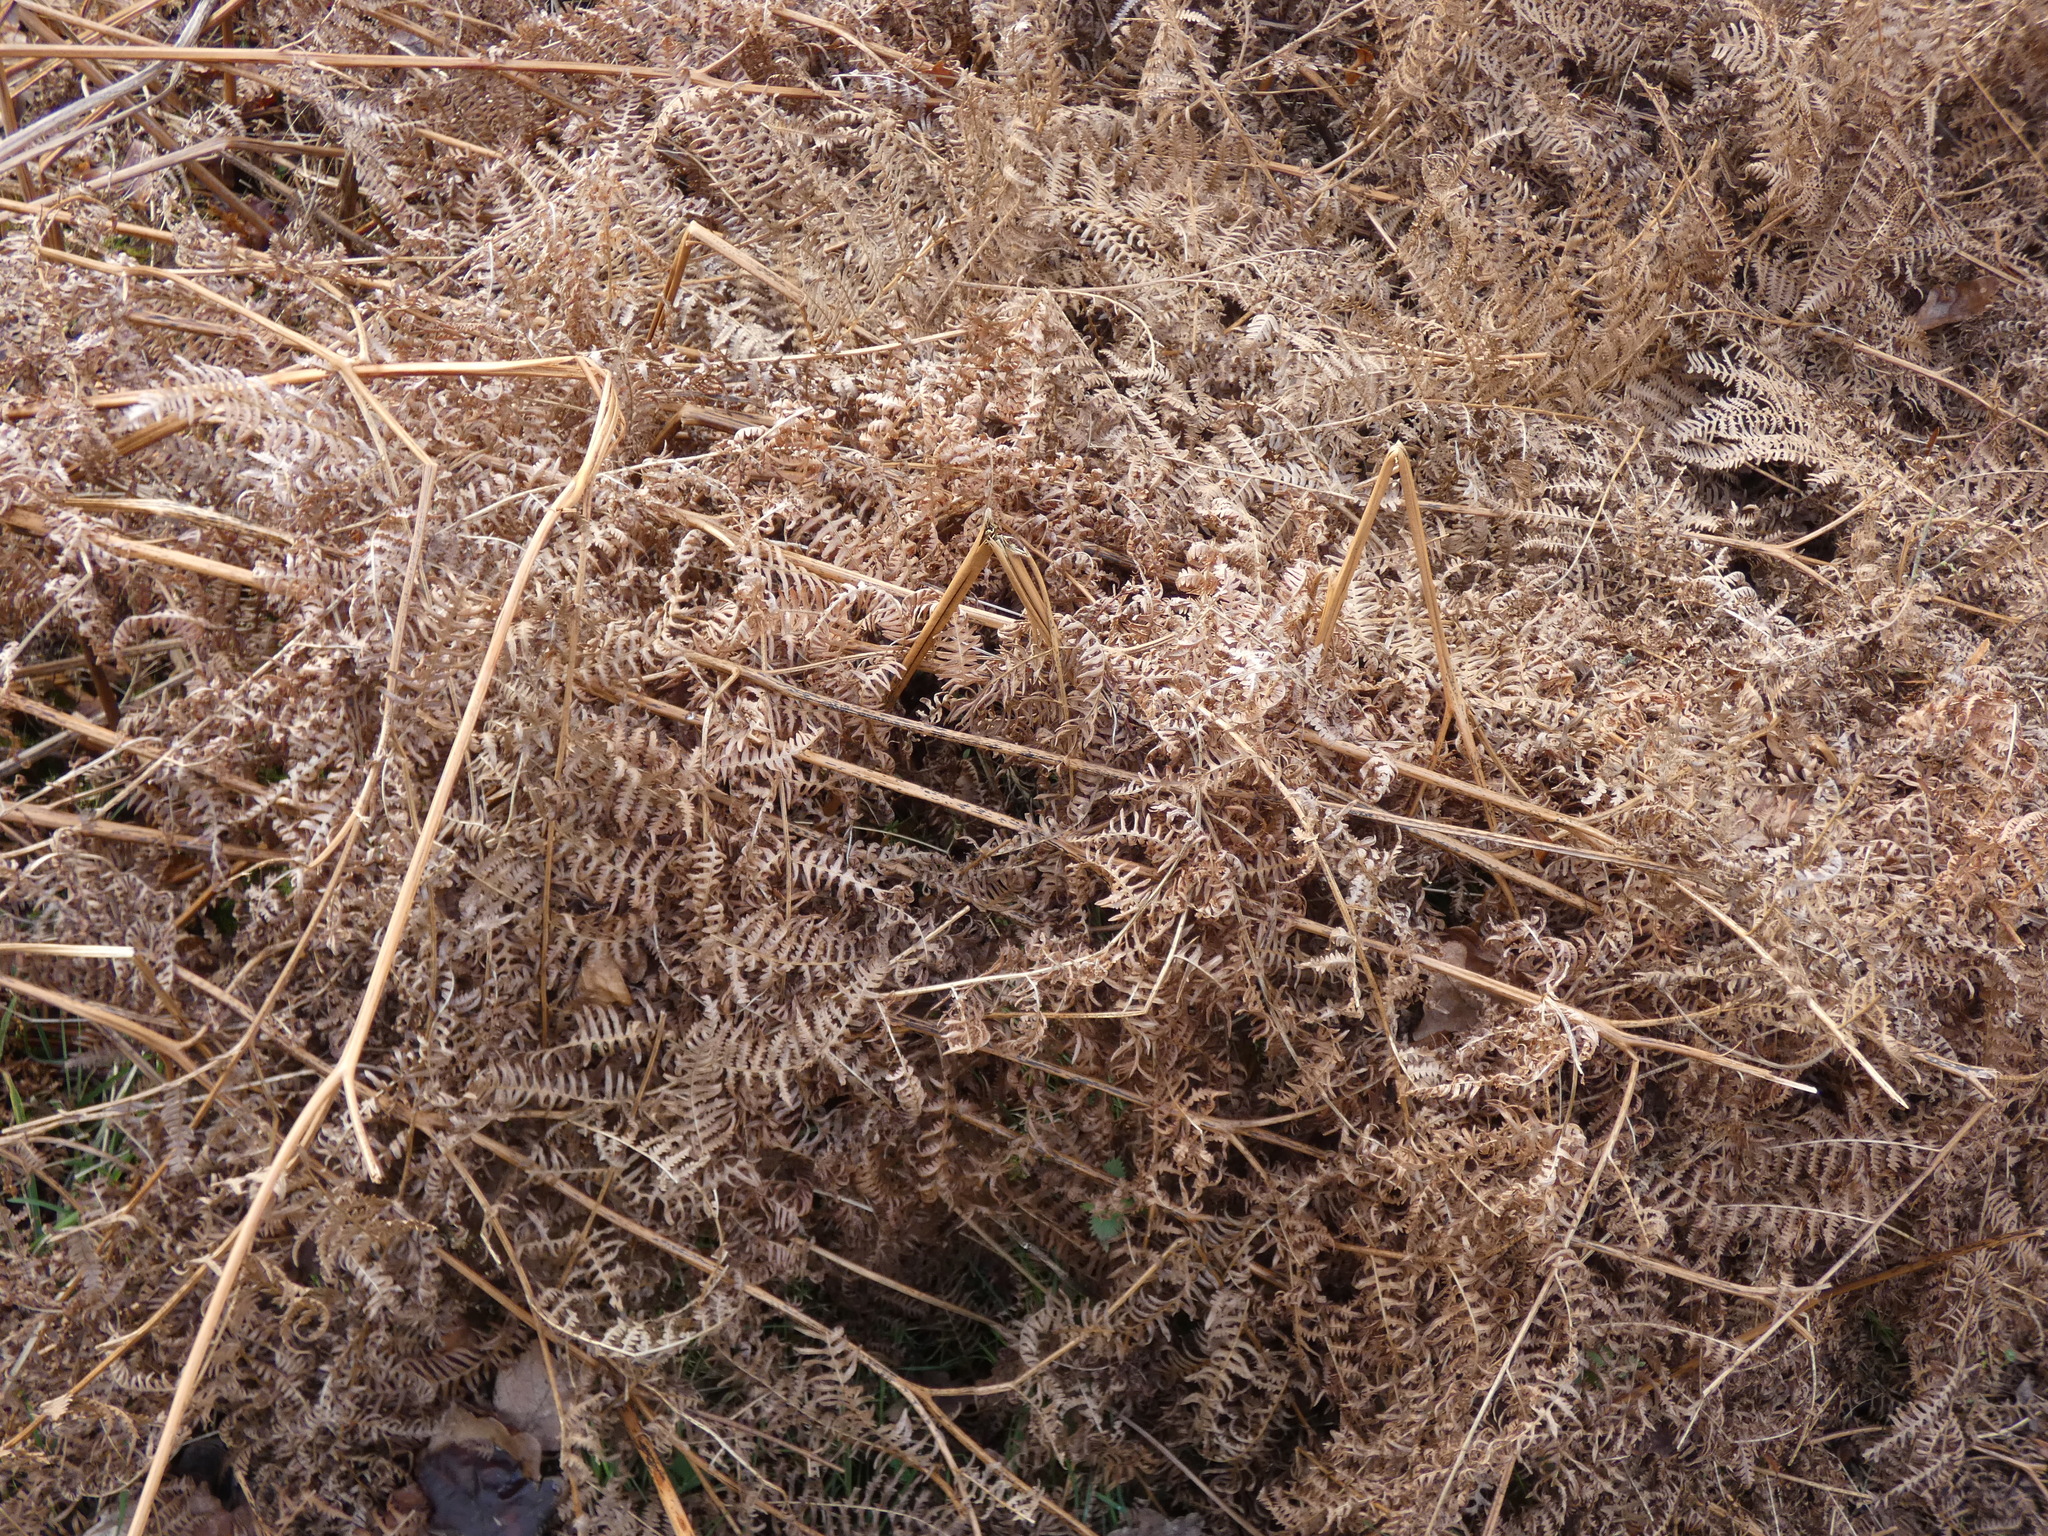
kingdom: Plantae
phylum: Tracheophyta
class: Polypodiopsida
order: Polypodiales
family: Dennstaedtiaceae
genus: Pteridium
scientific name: Pteridium aquilinum
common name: Bracken
